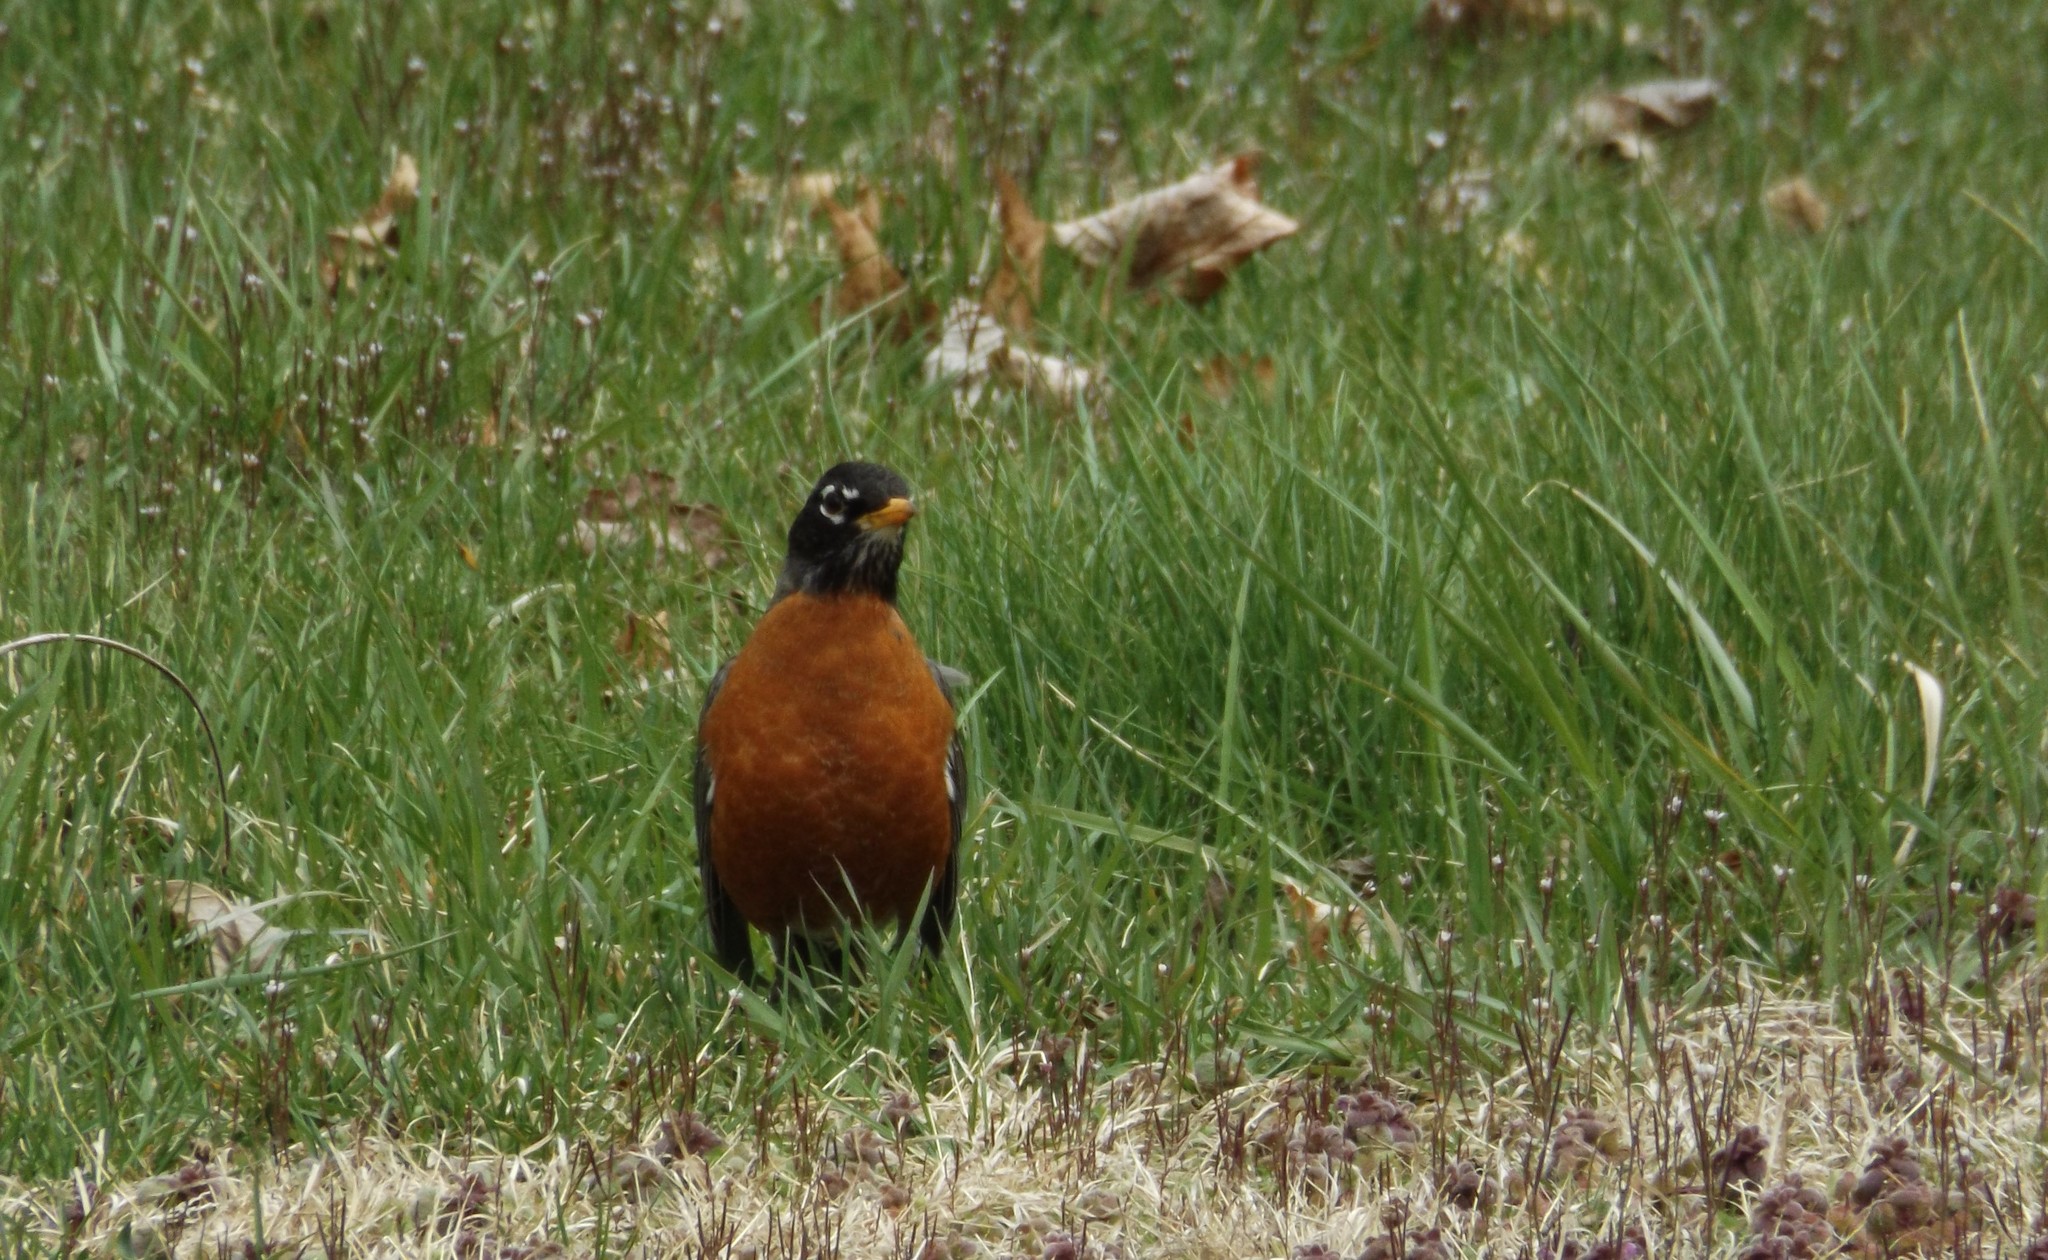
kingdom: Animalia
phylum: Chordata
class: Aves
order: Passeriformes
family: Turdidae
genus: Turdus
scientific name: Turdus migratorius
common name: American robin
